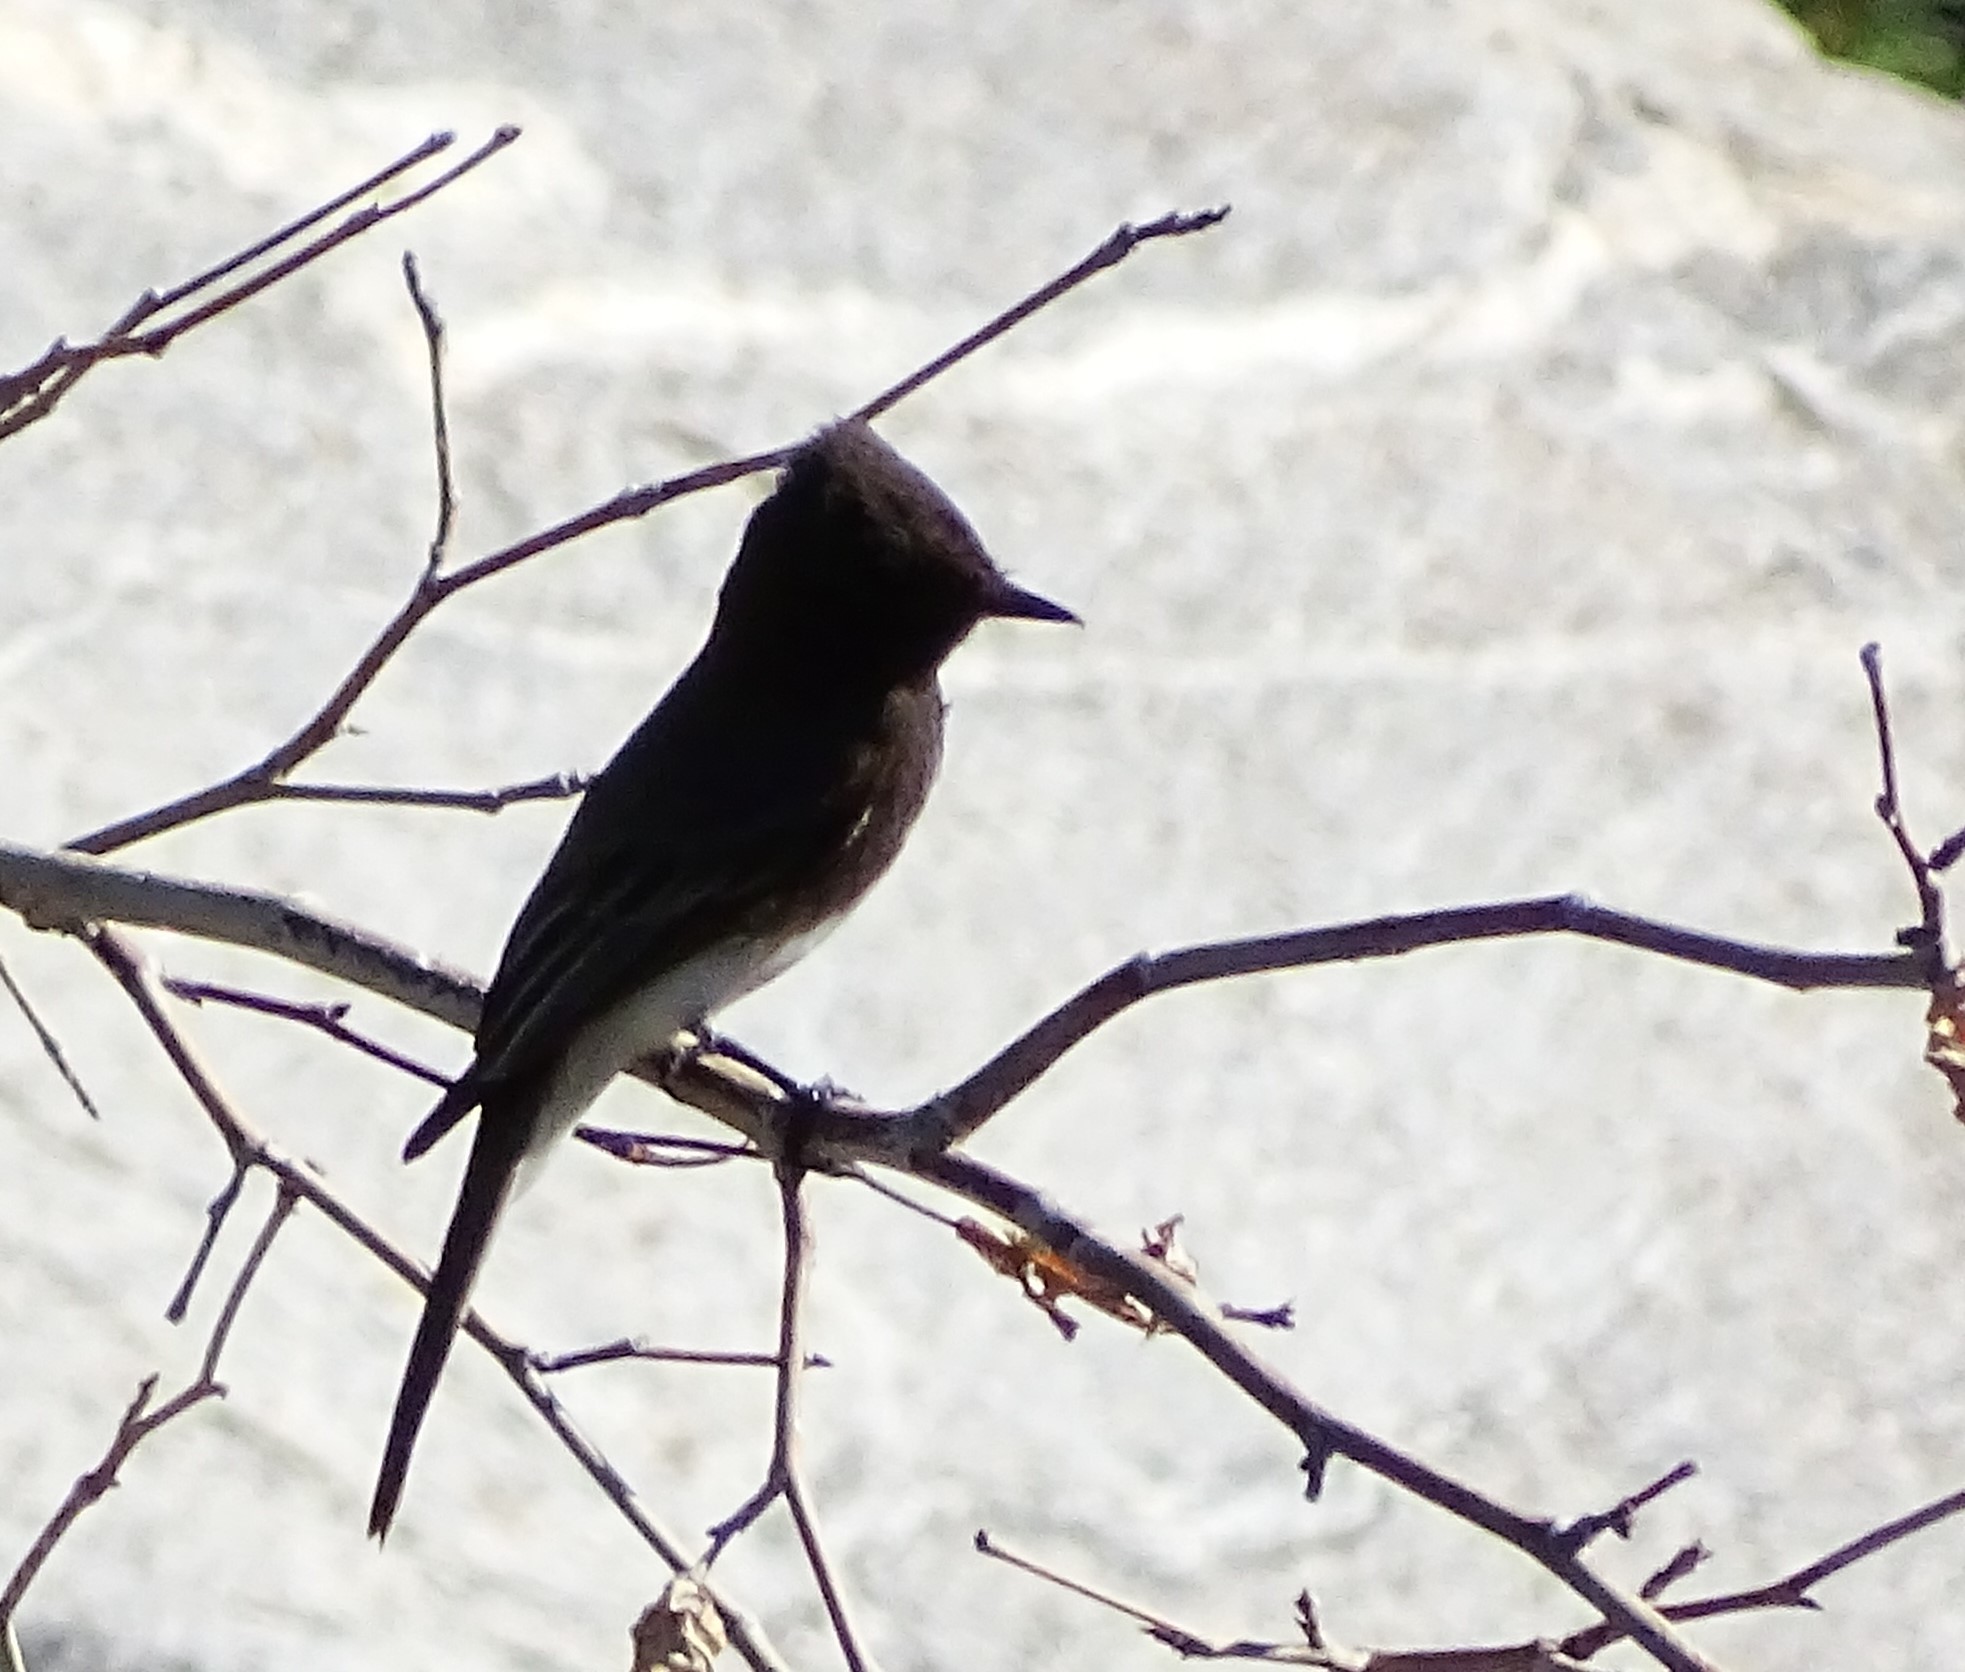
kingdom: Animalia
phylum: Chordata
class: Aves
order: Passeriformes
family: Tyrannidae
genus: Sayornis
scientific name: Sayornis nigricans
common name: Black phoebe
